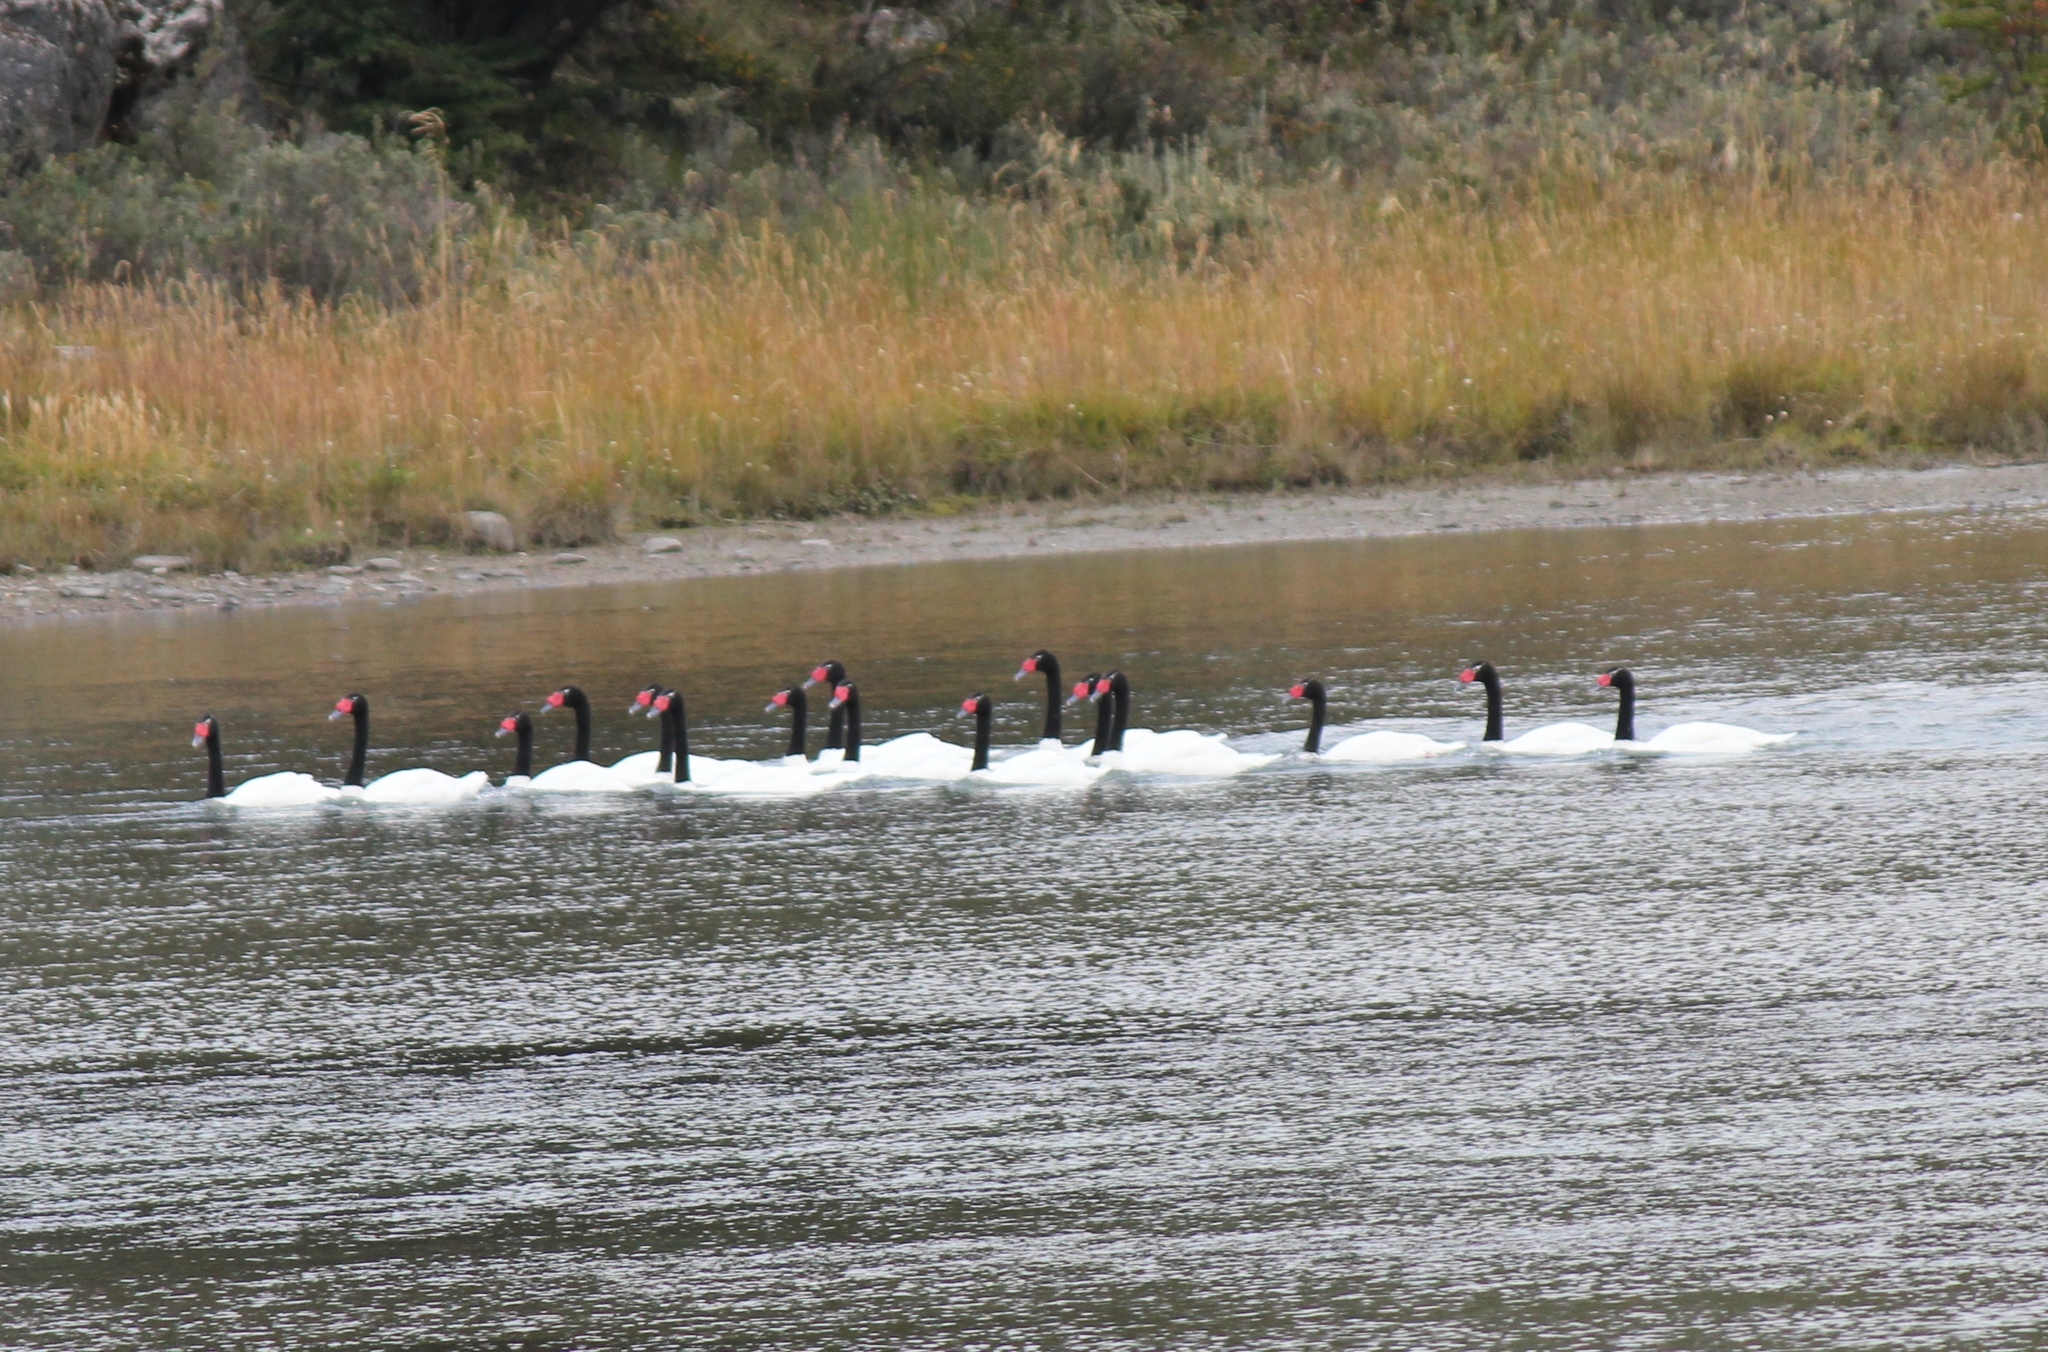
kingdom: Animalia
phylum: Chordata
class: Aves
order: Anseriformes
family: Anatidae
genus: Cygnus
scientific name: Cygnus melancoryphus
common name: Black-necked swan
